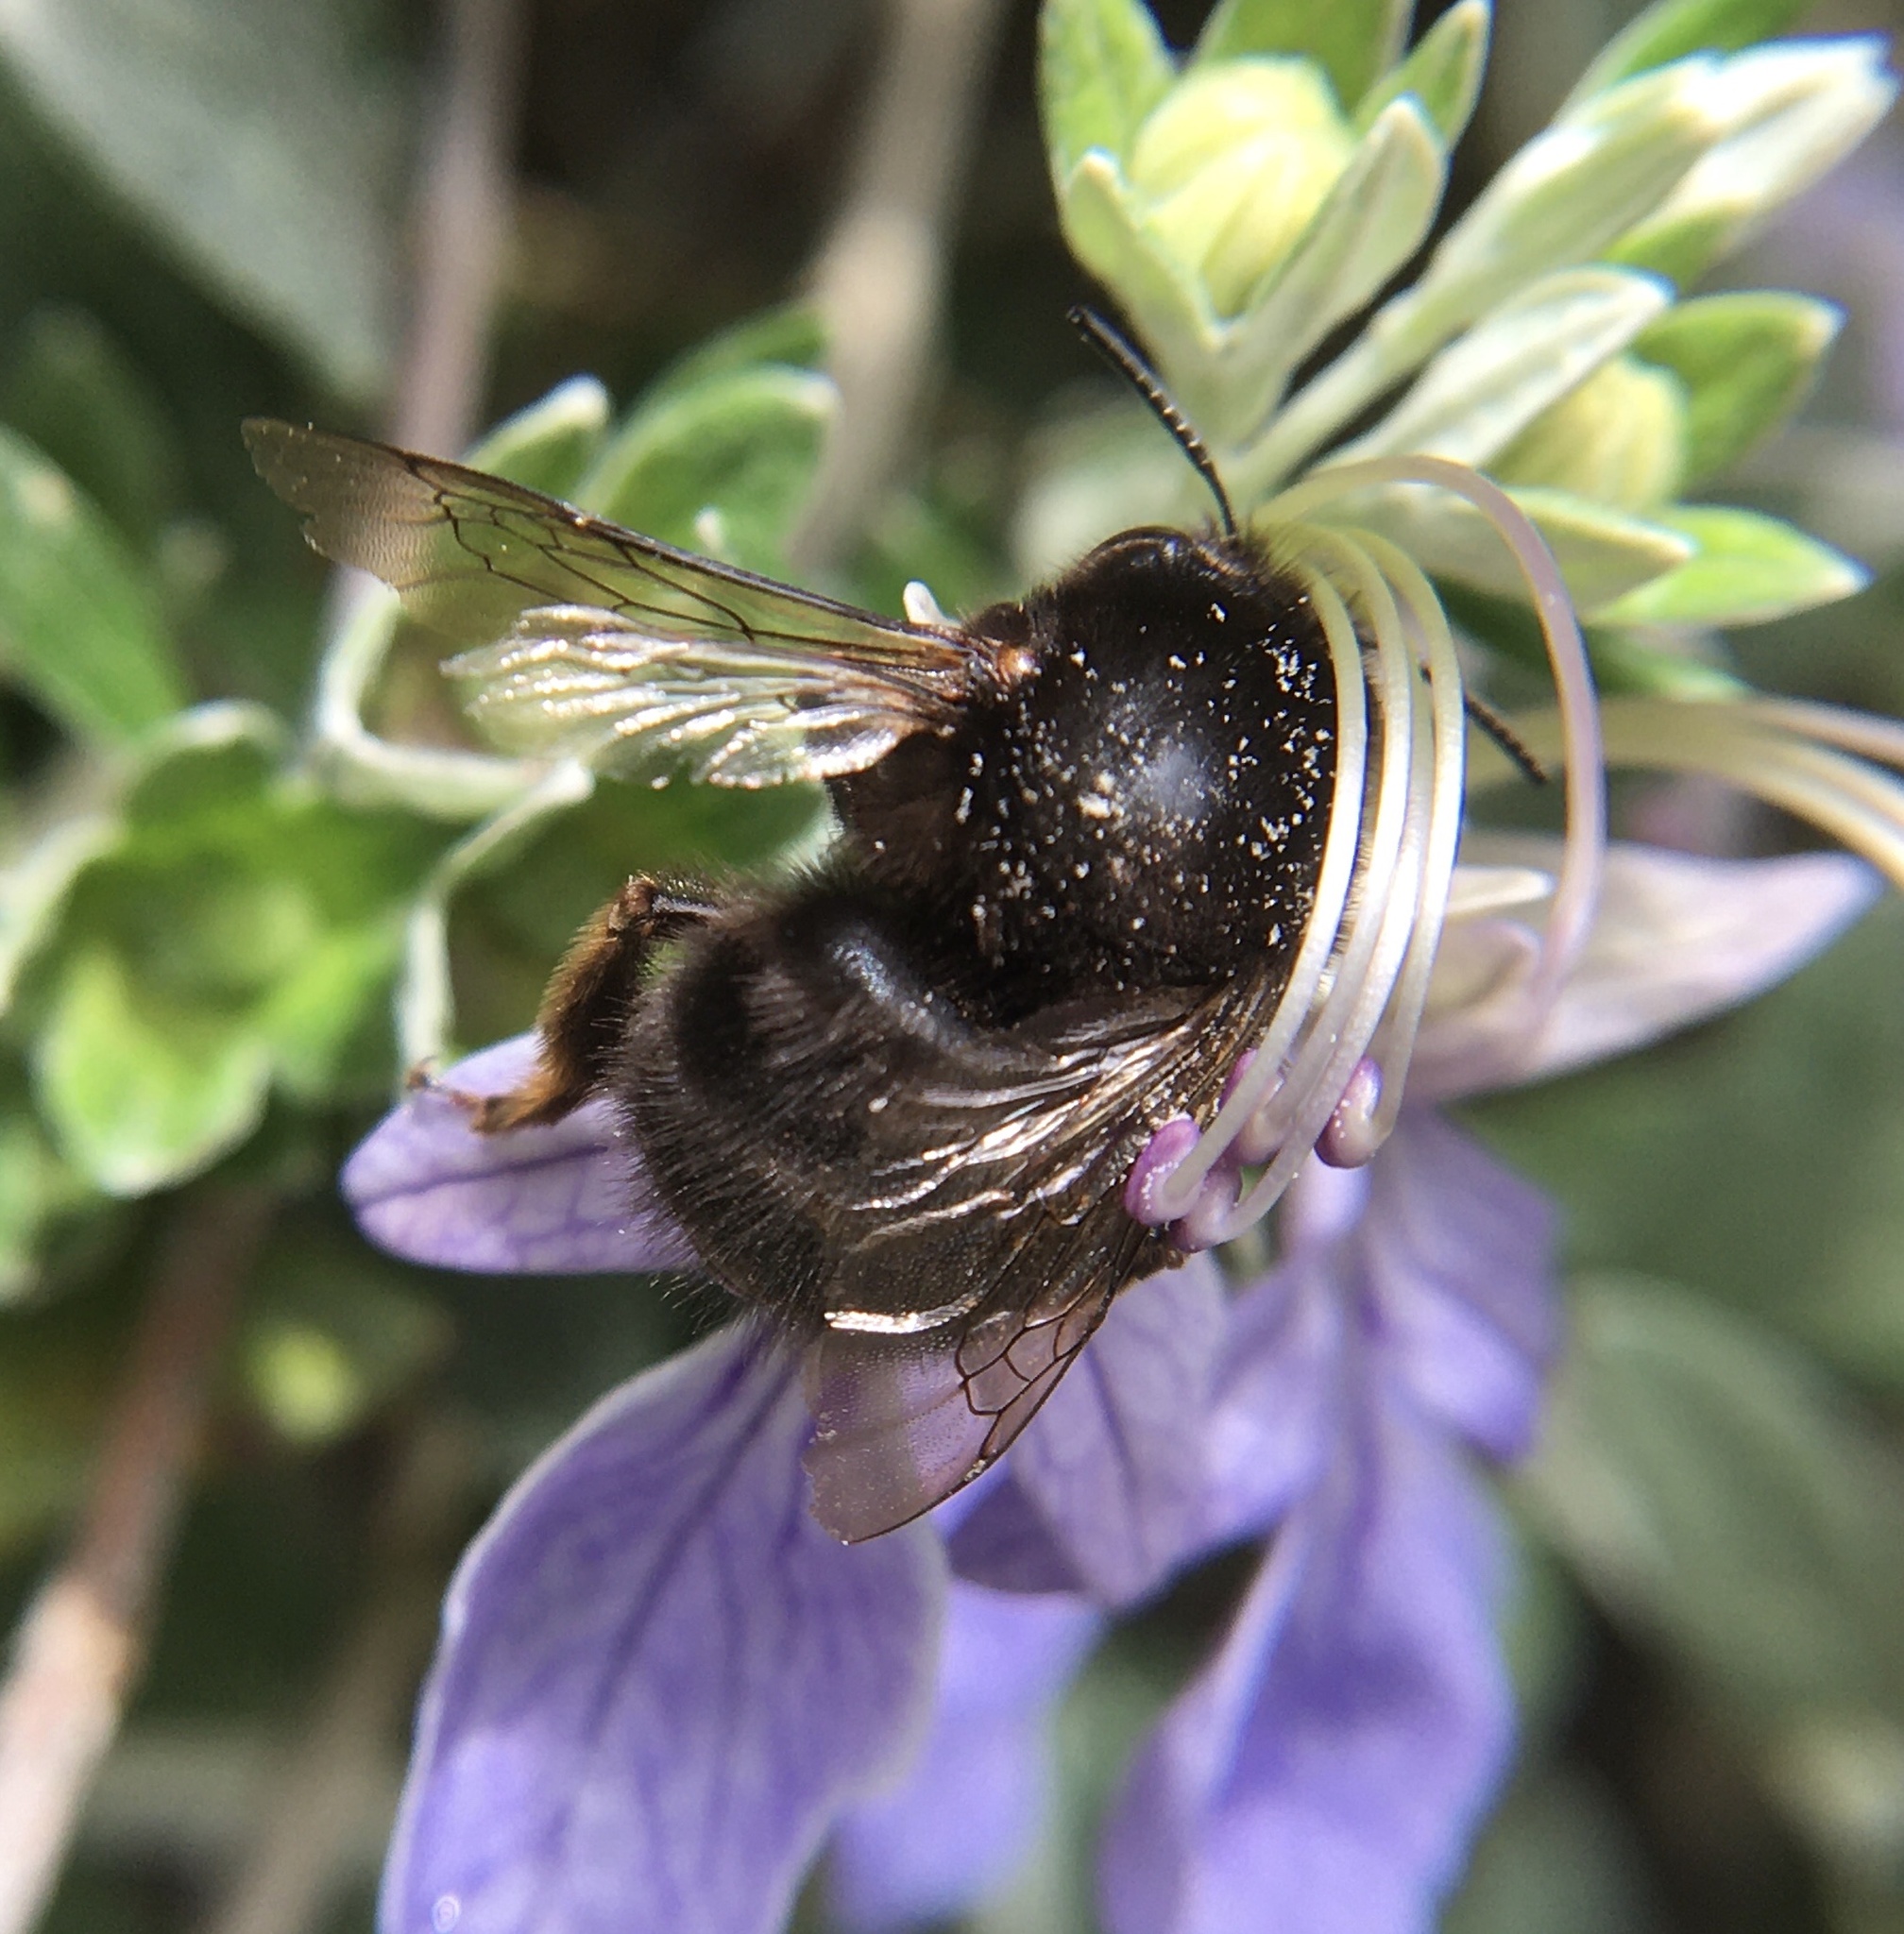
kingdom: Animalia
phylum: Arthropoda
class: Insecta
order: Hymenoptera
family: Apidae
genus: Anthophora
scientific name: Anthophora plumipes
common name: Hairy-footed flower bee
